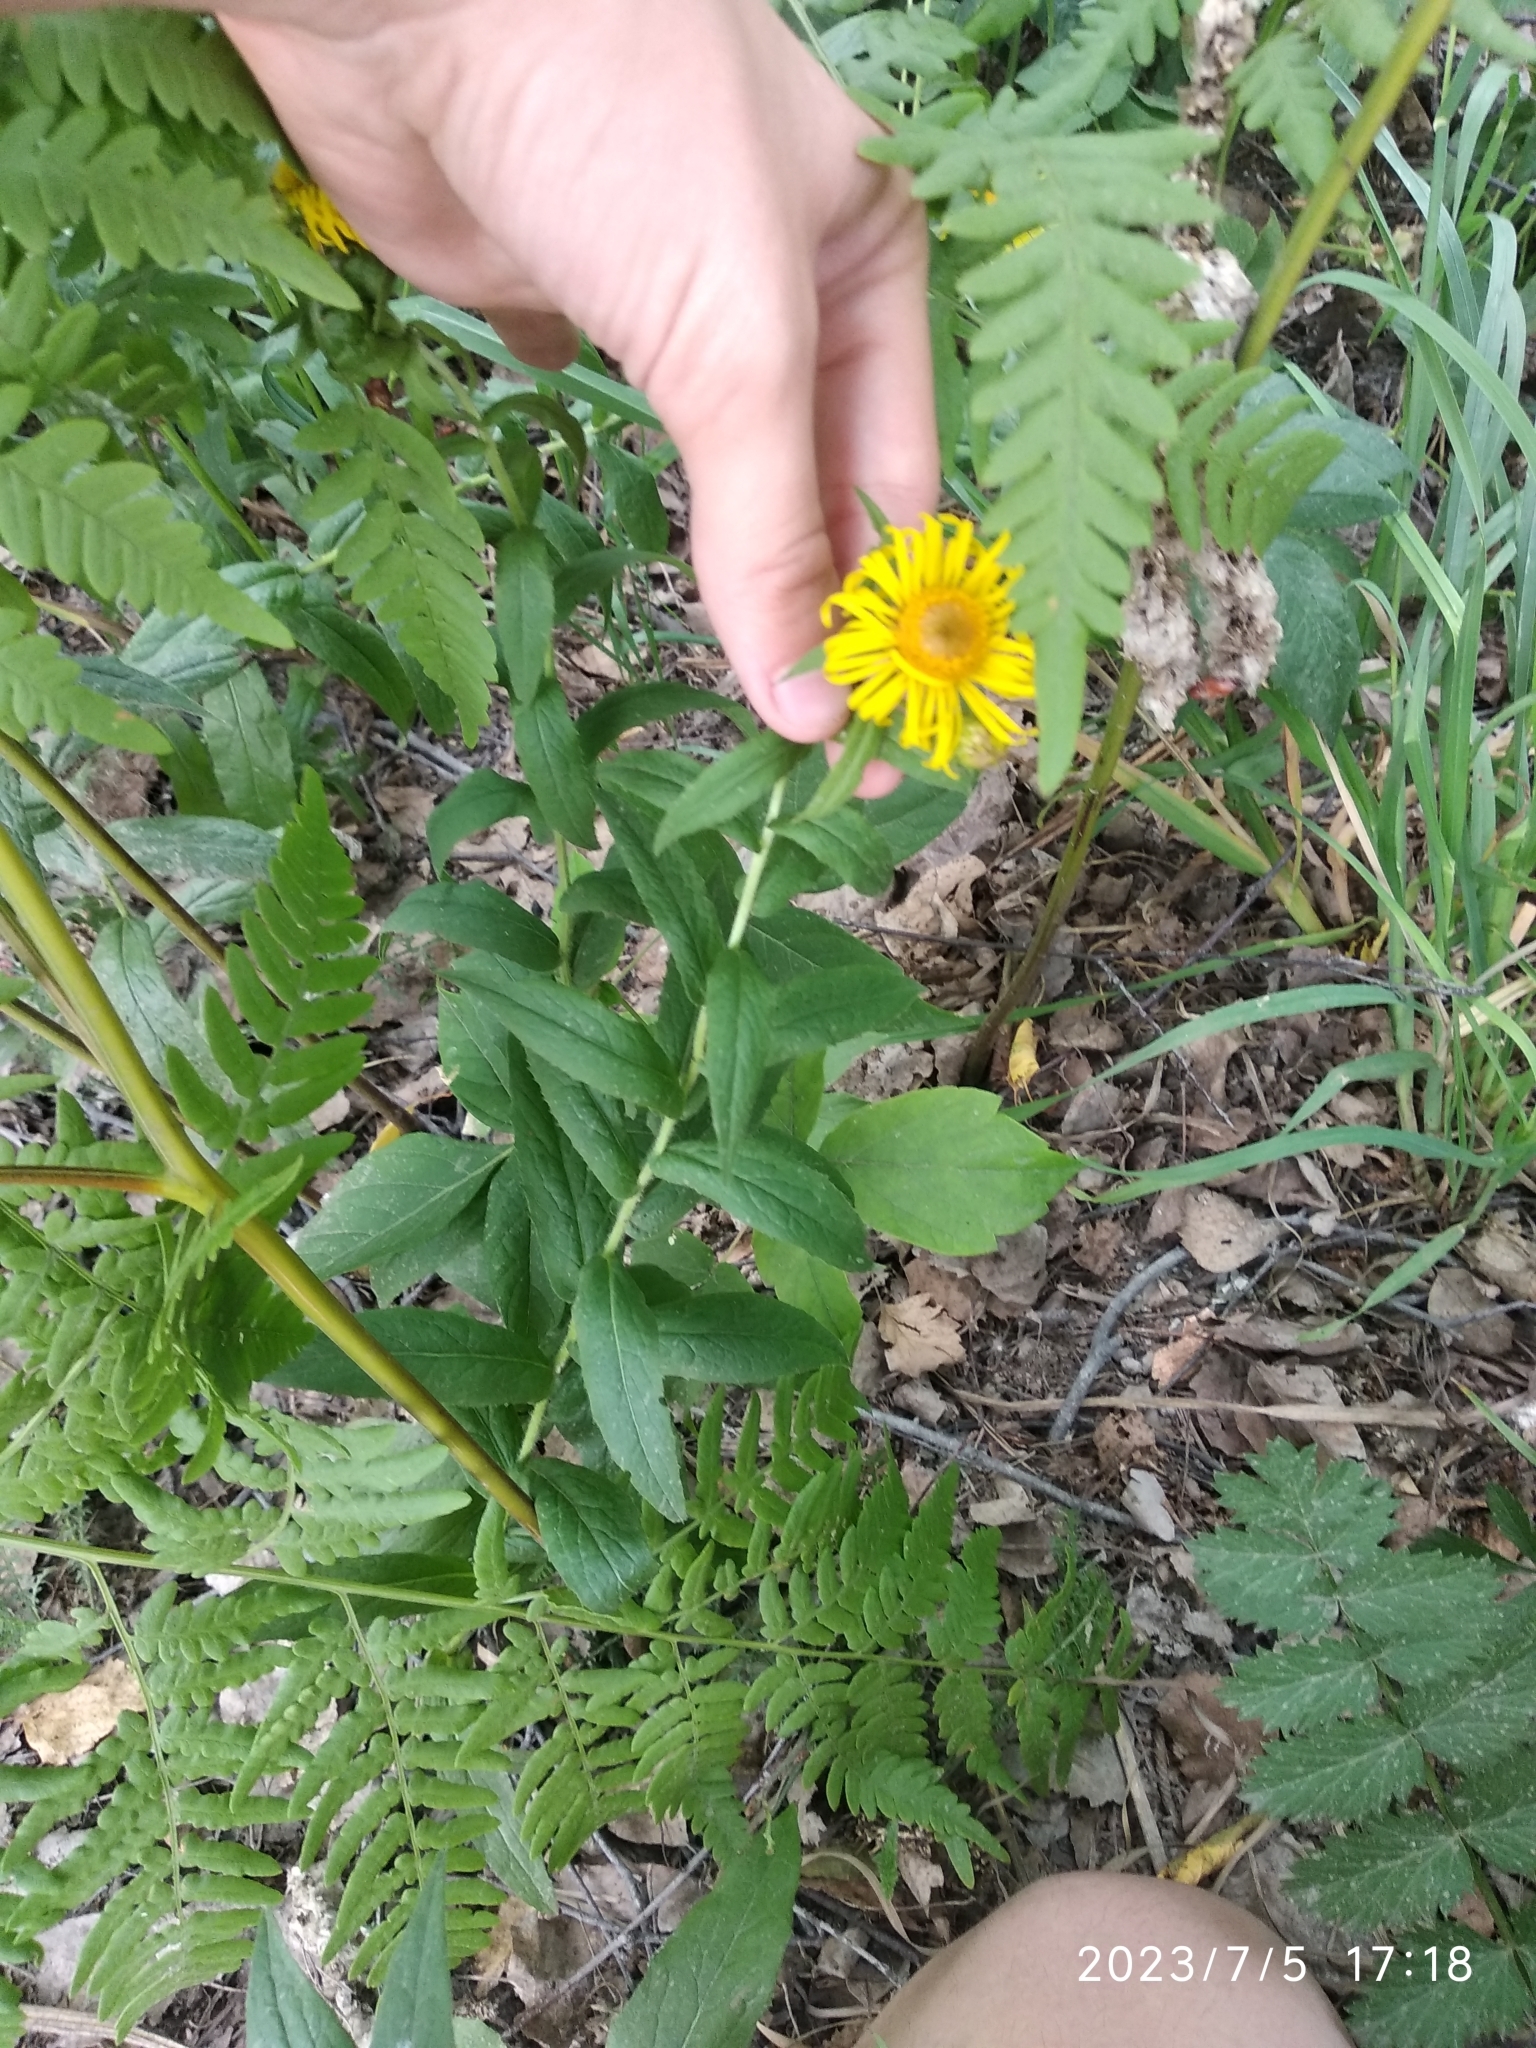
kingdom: Plantae
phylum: Tracheophyta
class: Magnoliopsida
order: Asterales
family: Asteraceae
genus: Pentanema
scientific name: Pentanema salicinum
